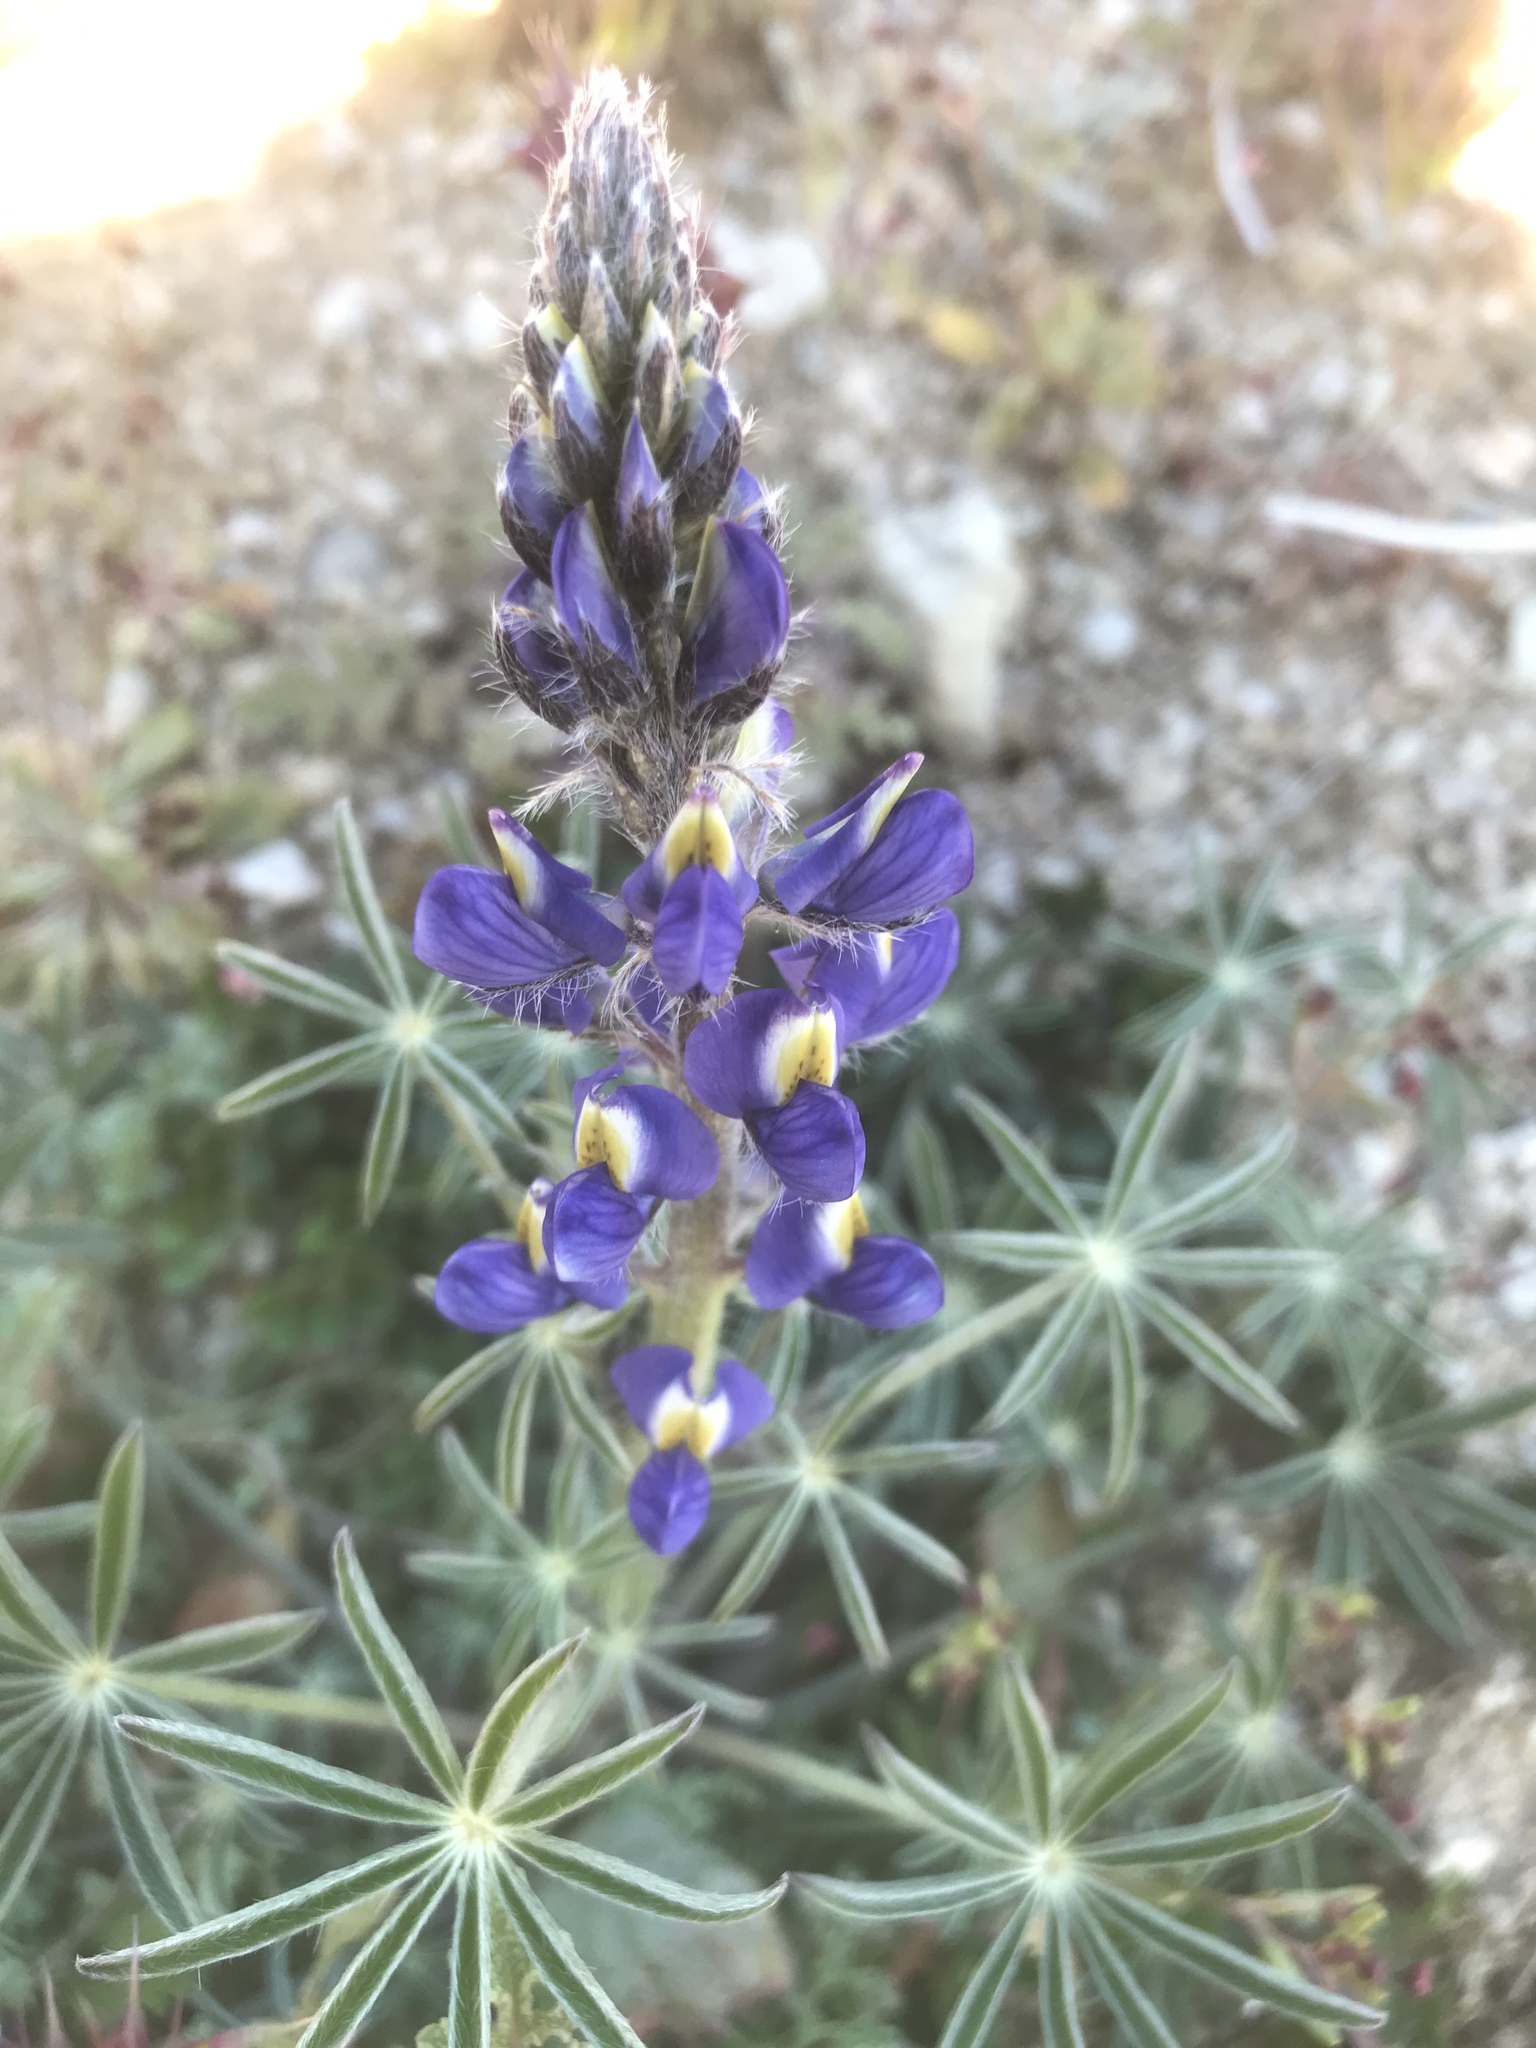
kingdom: Plantae
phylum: Tracheophyta
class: Magnoliopsida
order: Fabales
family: Fabaceae
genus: Lupinus
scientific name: Lupinus sparsiflorus
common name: Coulter's lupine
